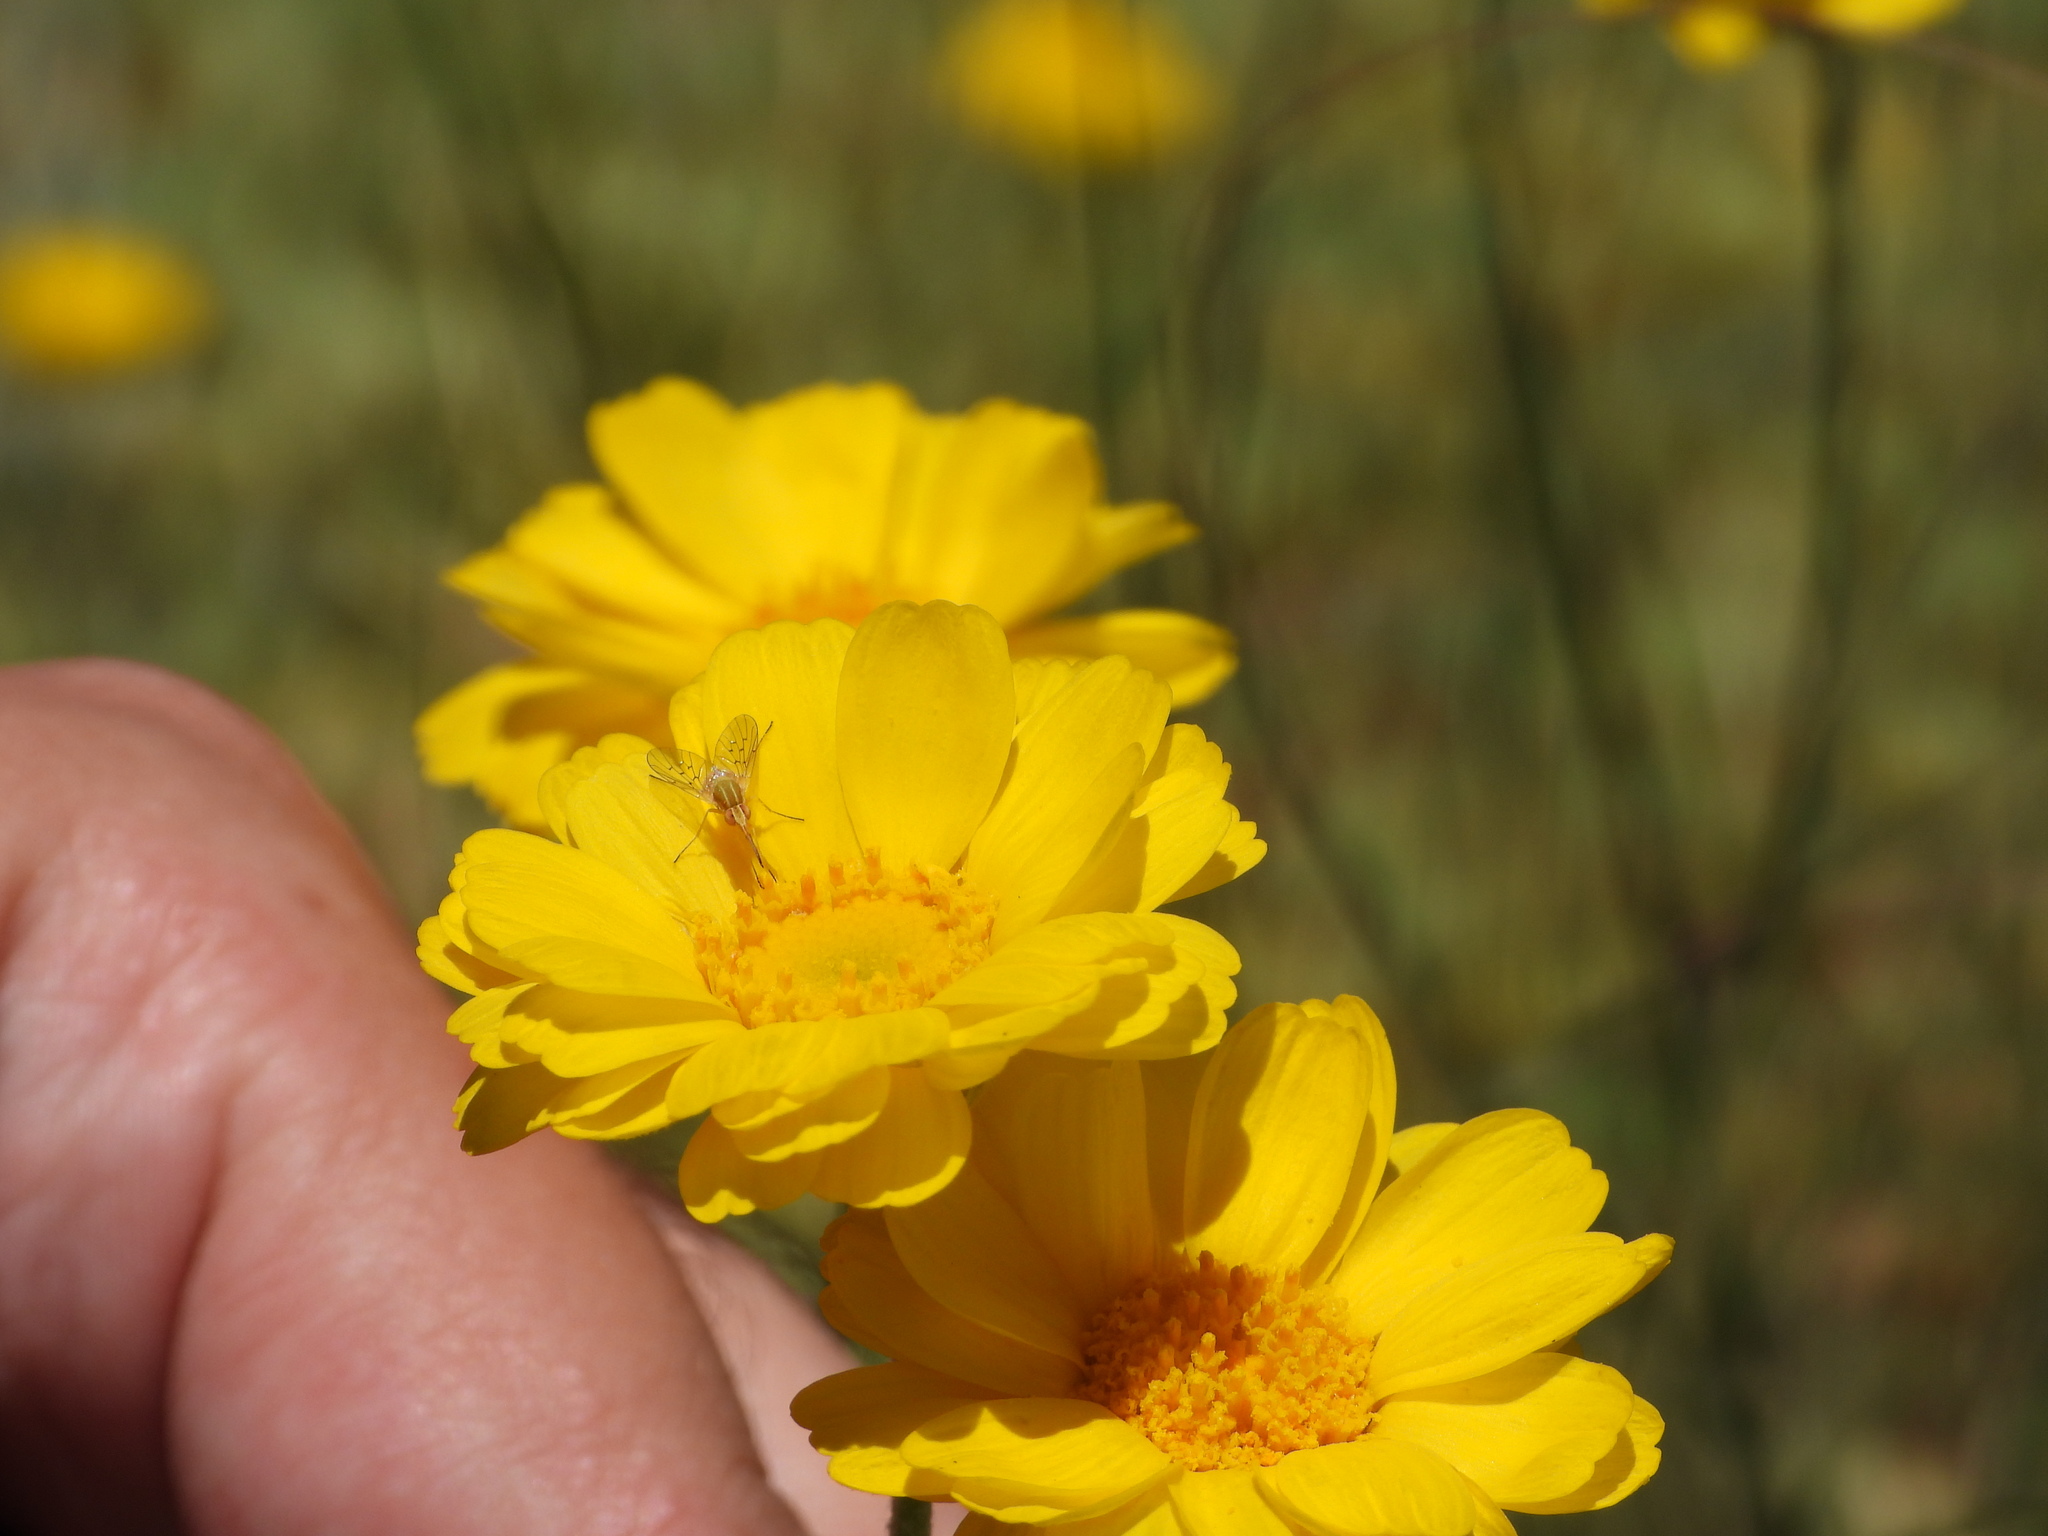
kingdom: Animalia
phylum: Arthropoda
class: Insecta
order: Diptera
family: Bombyliidae
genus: Poecilognathus
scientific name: Poecilognathus unimaculatus
